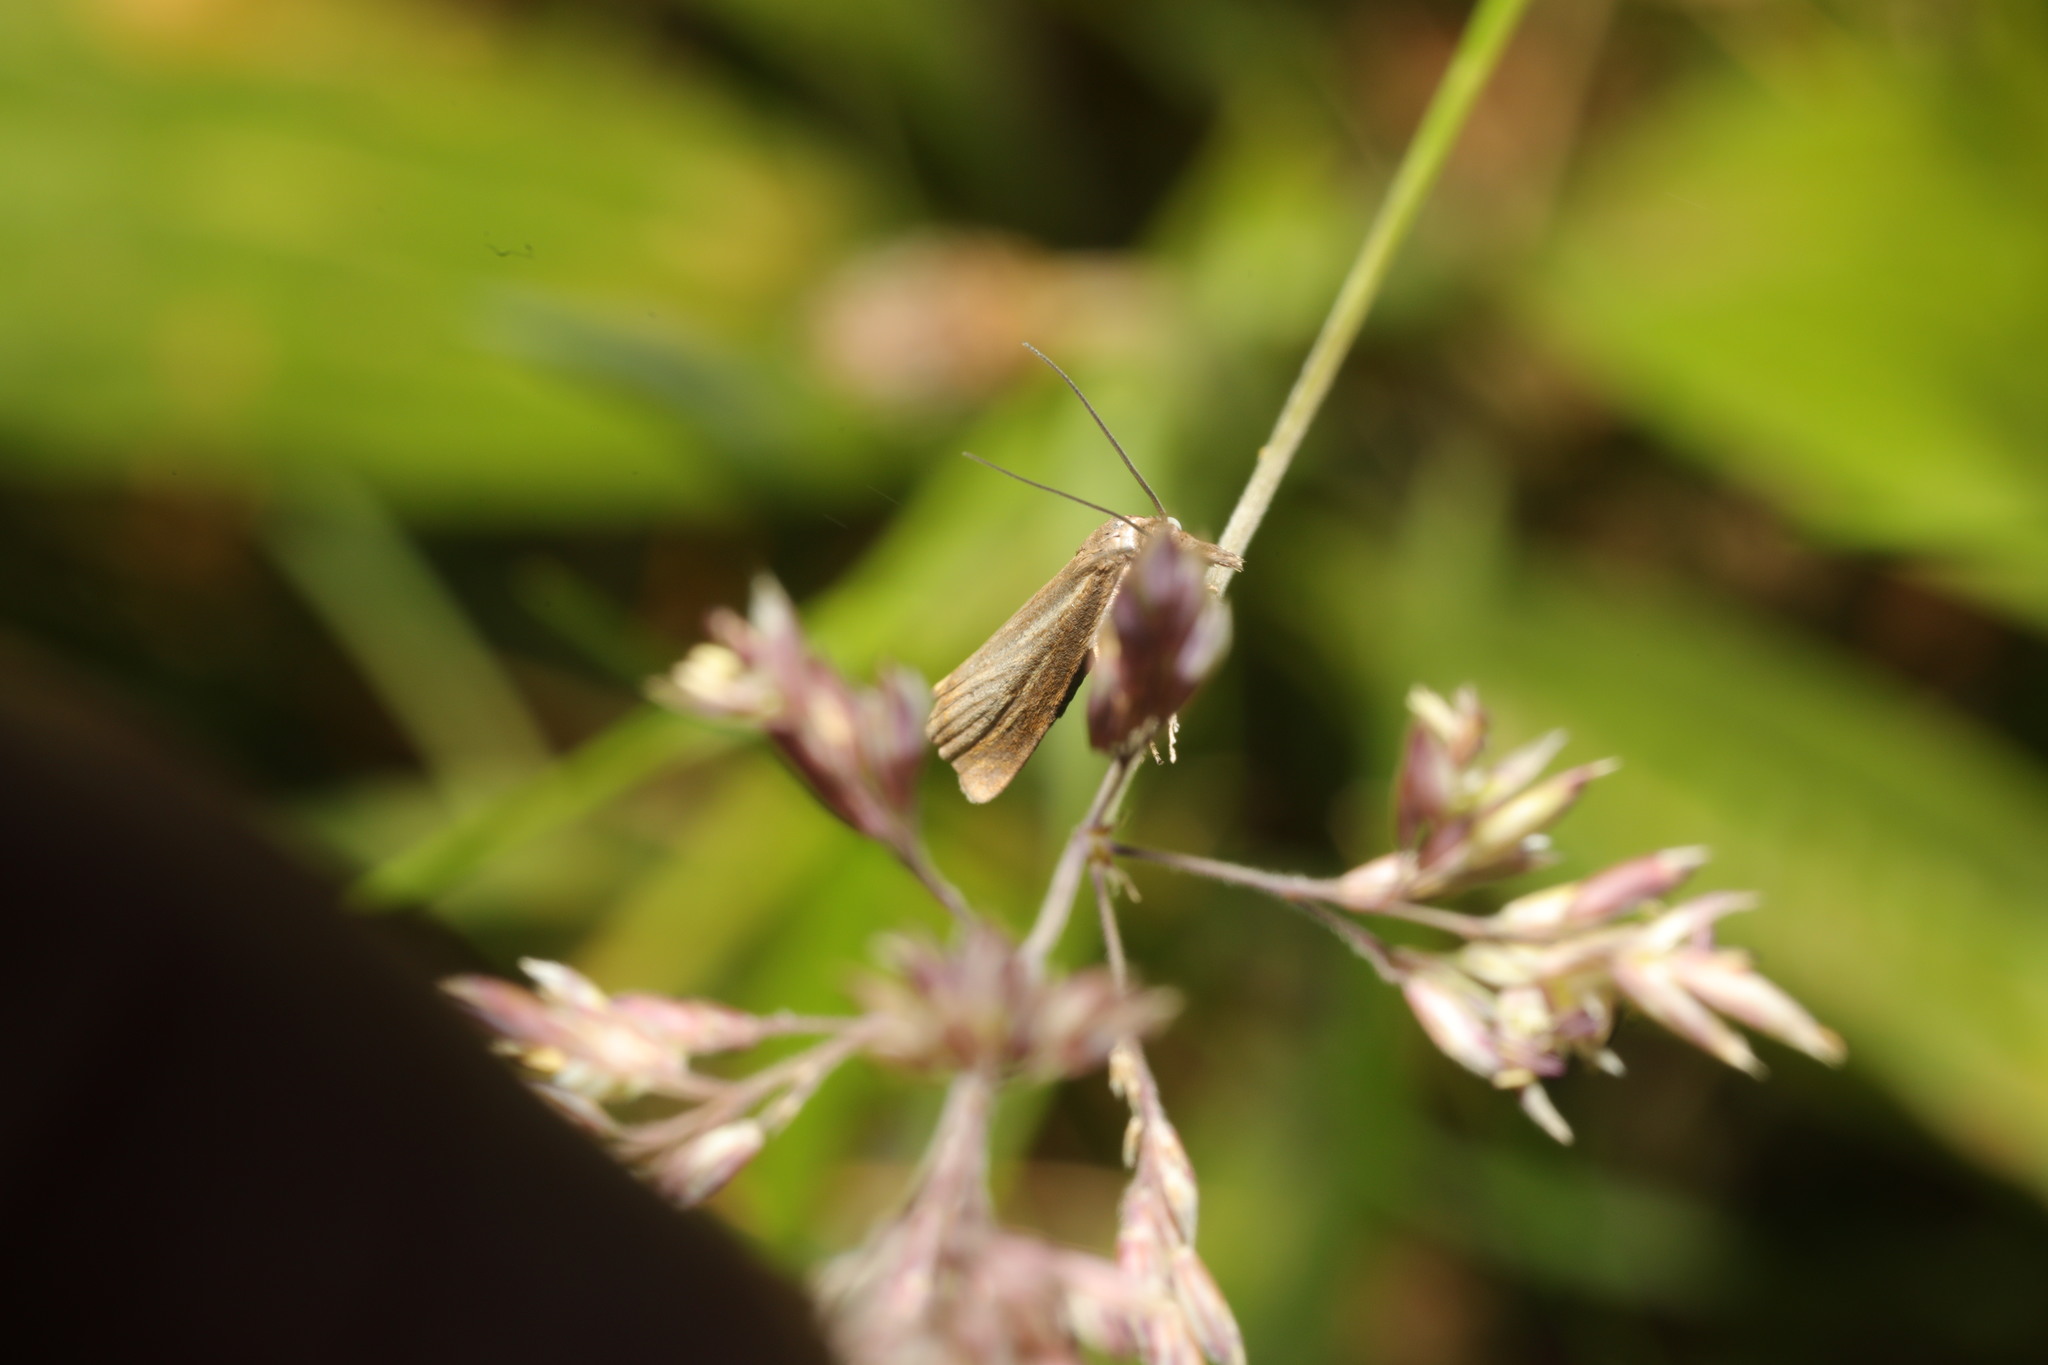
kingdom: Animalia
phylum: Arthropoda
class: Insecta
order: Lepidoptera
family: Crambidae
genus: Chrysoteuchia
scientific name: Chrysoteuchia culmella
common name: Garden grass-veneer
